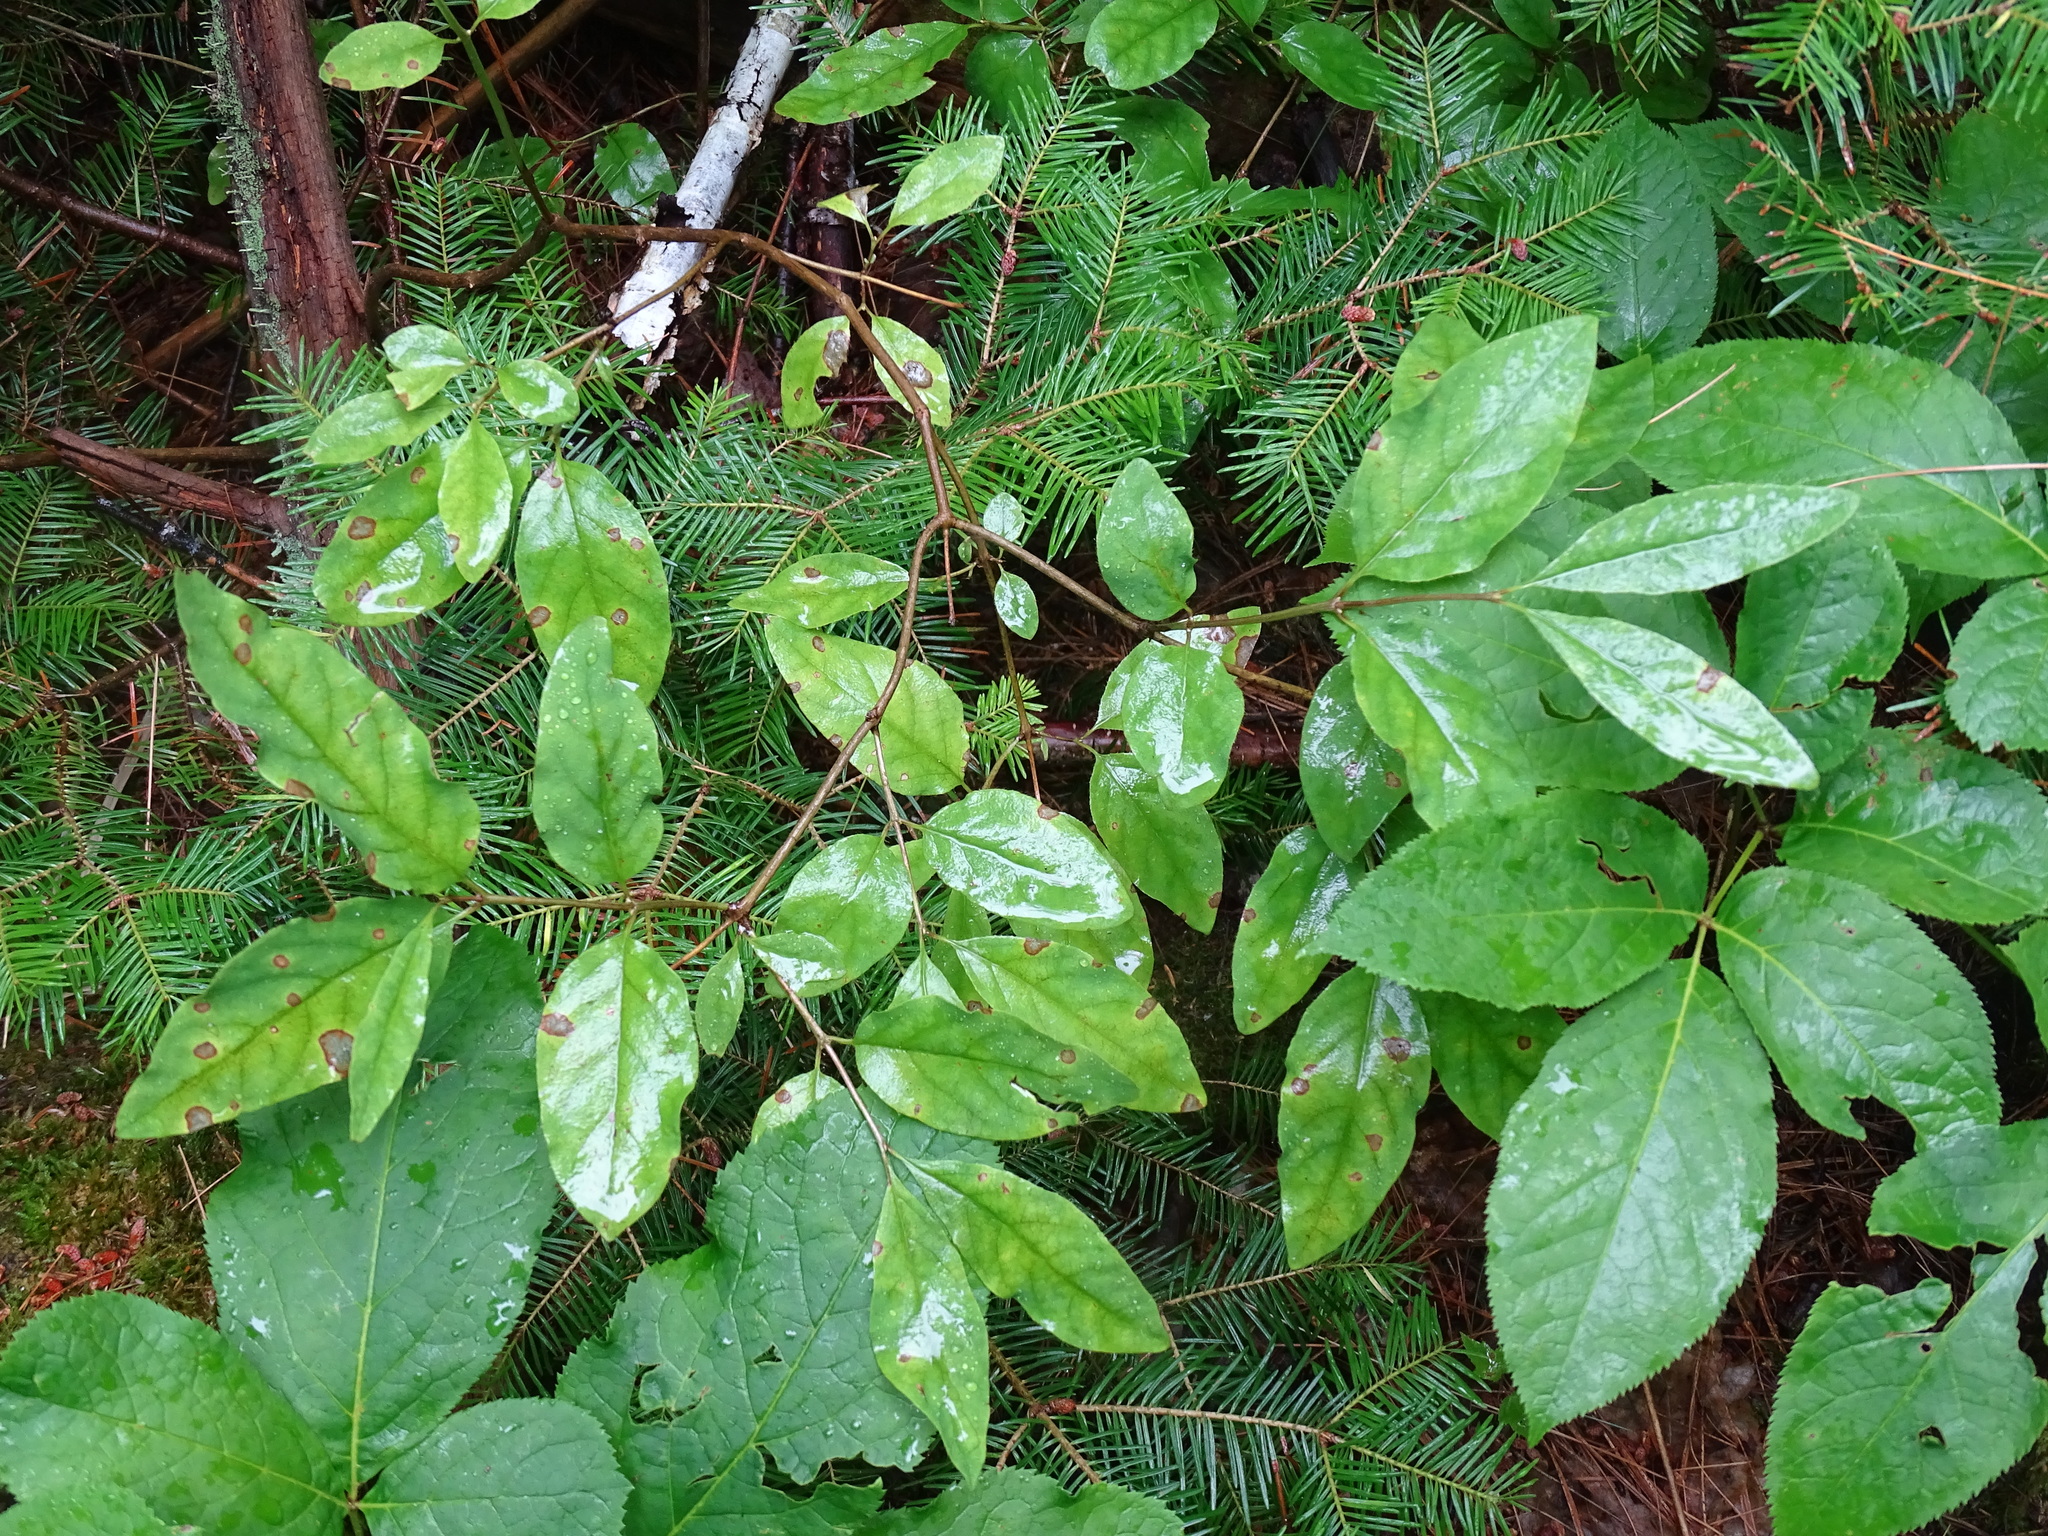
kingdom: Plantae
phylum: Tracheophyta
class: Magnoliopsida
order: Dipsacales
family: Caprifoliaceae
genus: Lonicera
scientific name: Lonicera canadensis
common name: American fly-honeysuckle
